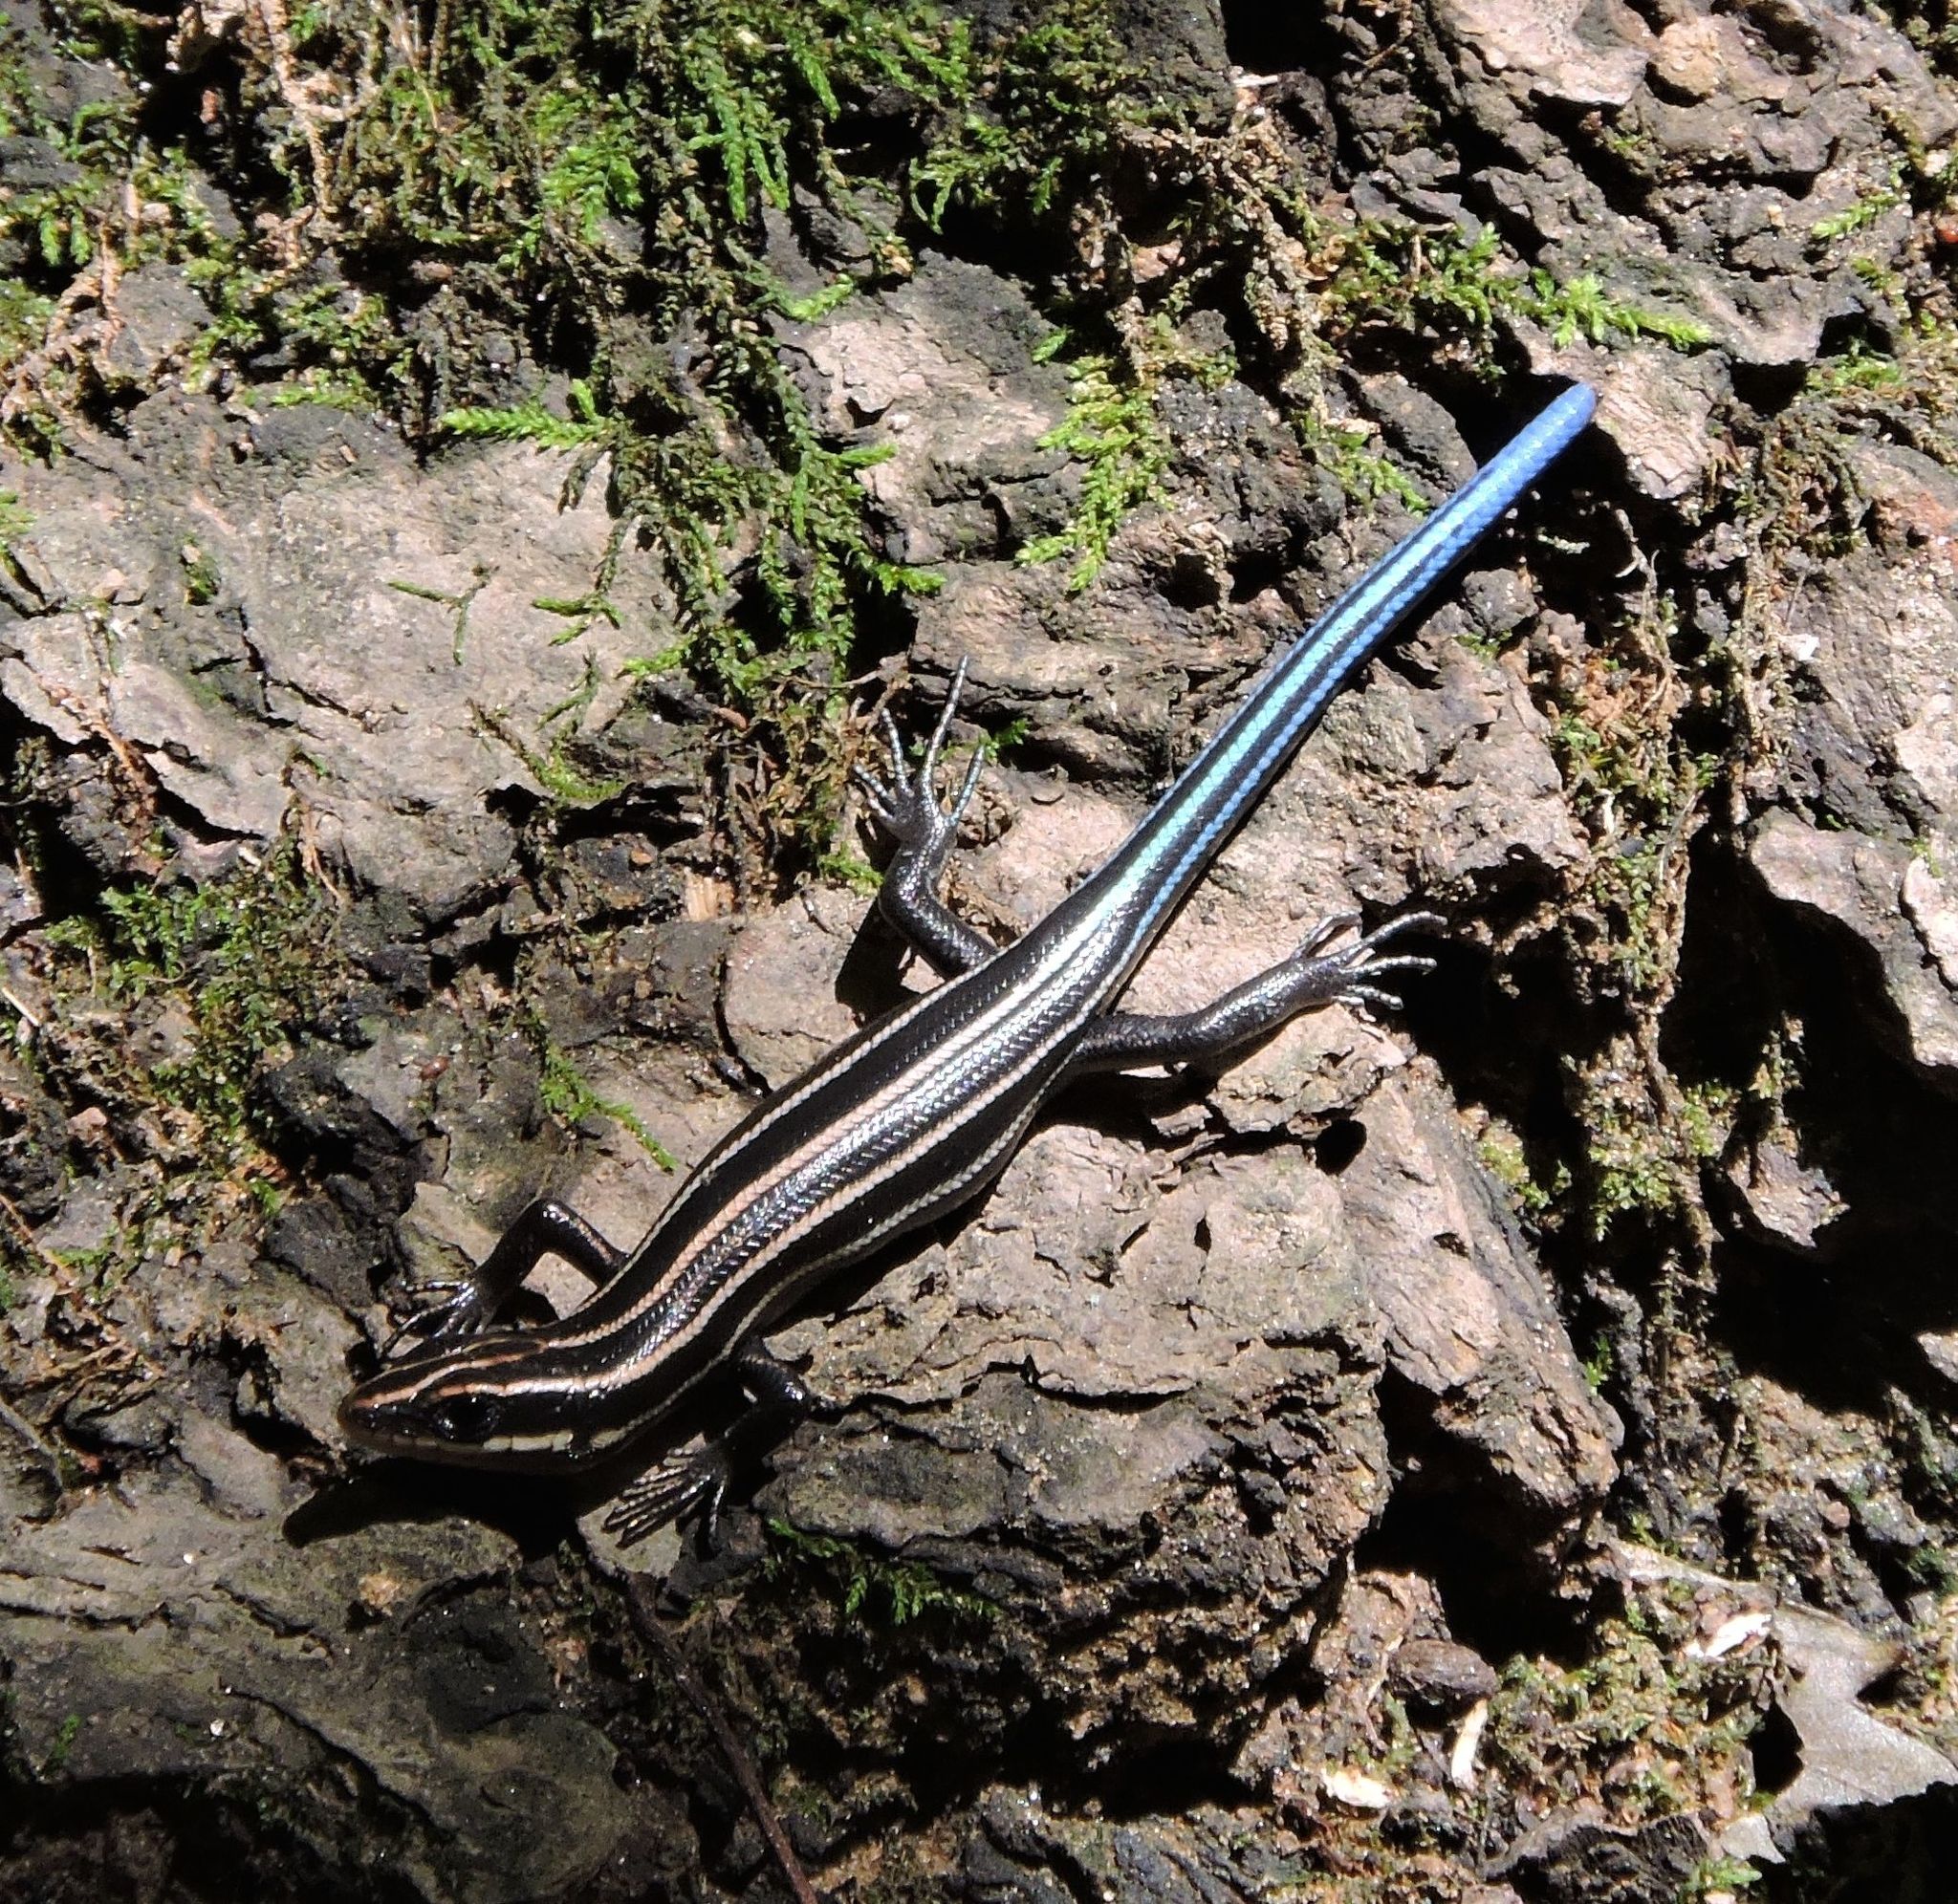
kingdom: Animalia
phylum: Chordata
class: Squamata
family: Scincidae
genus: Plestiodon
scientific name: Plestiodon fasciatus
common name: Five-lined skink
